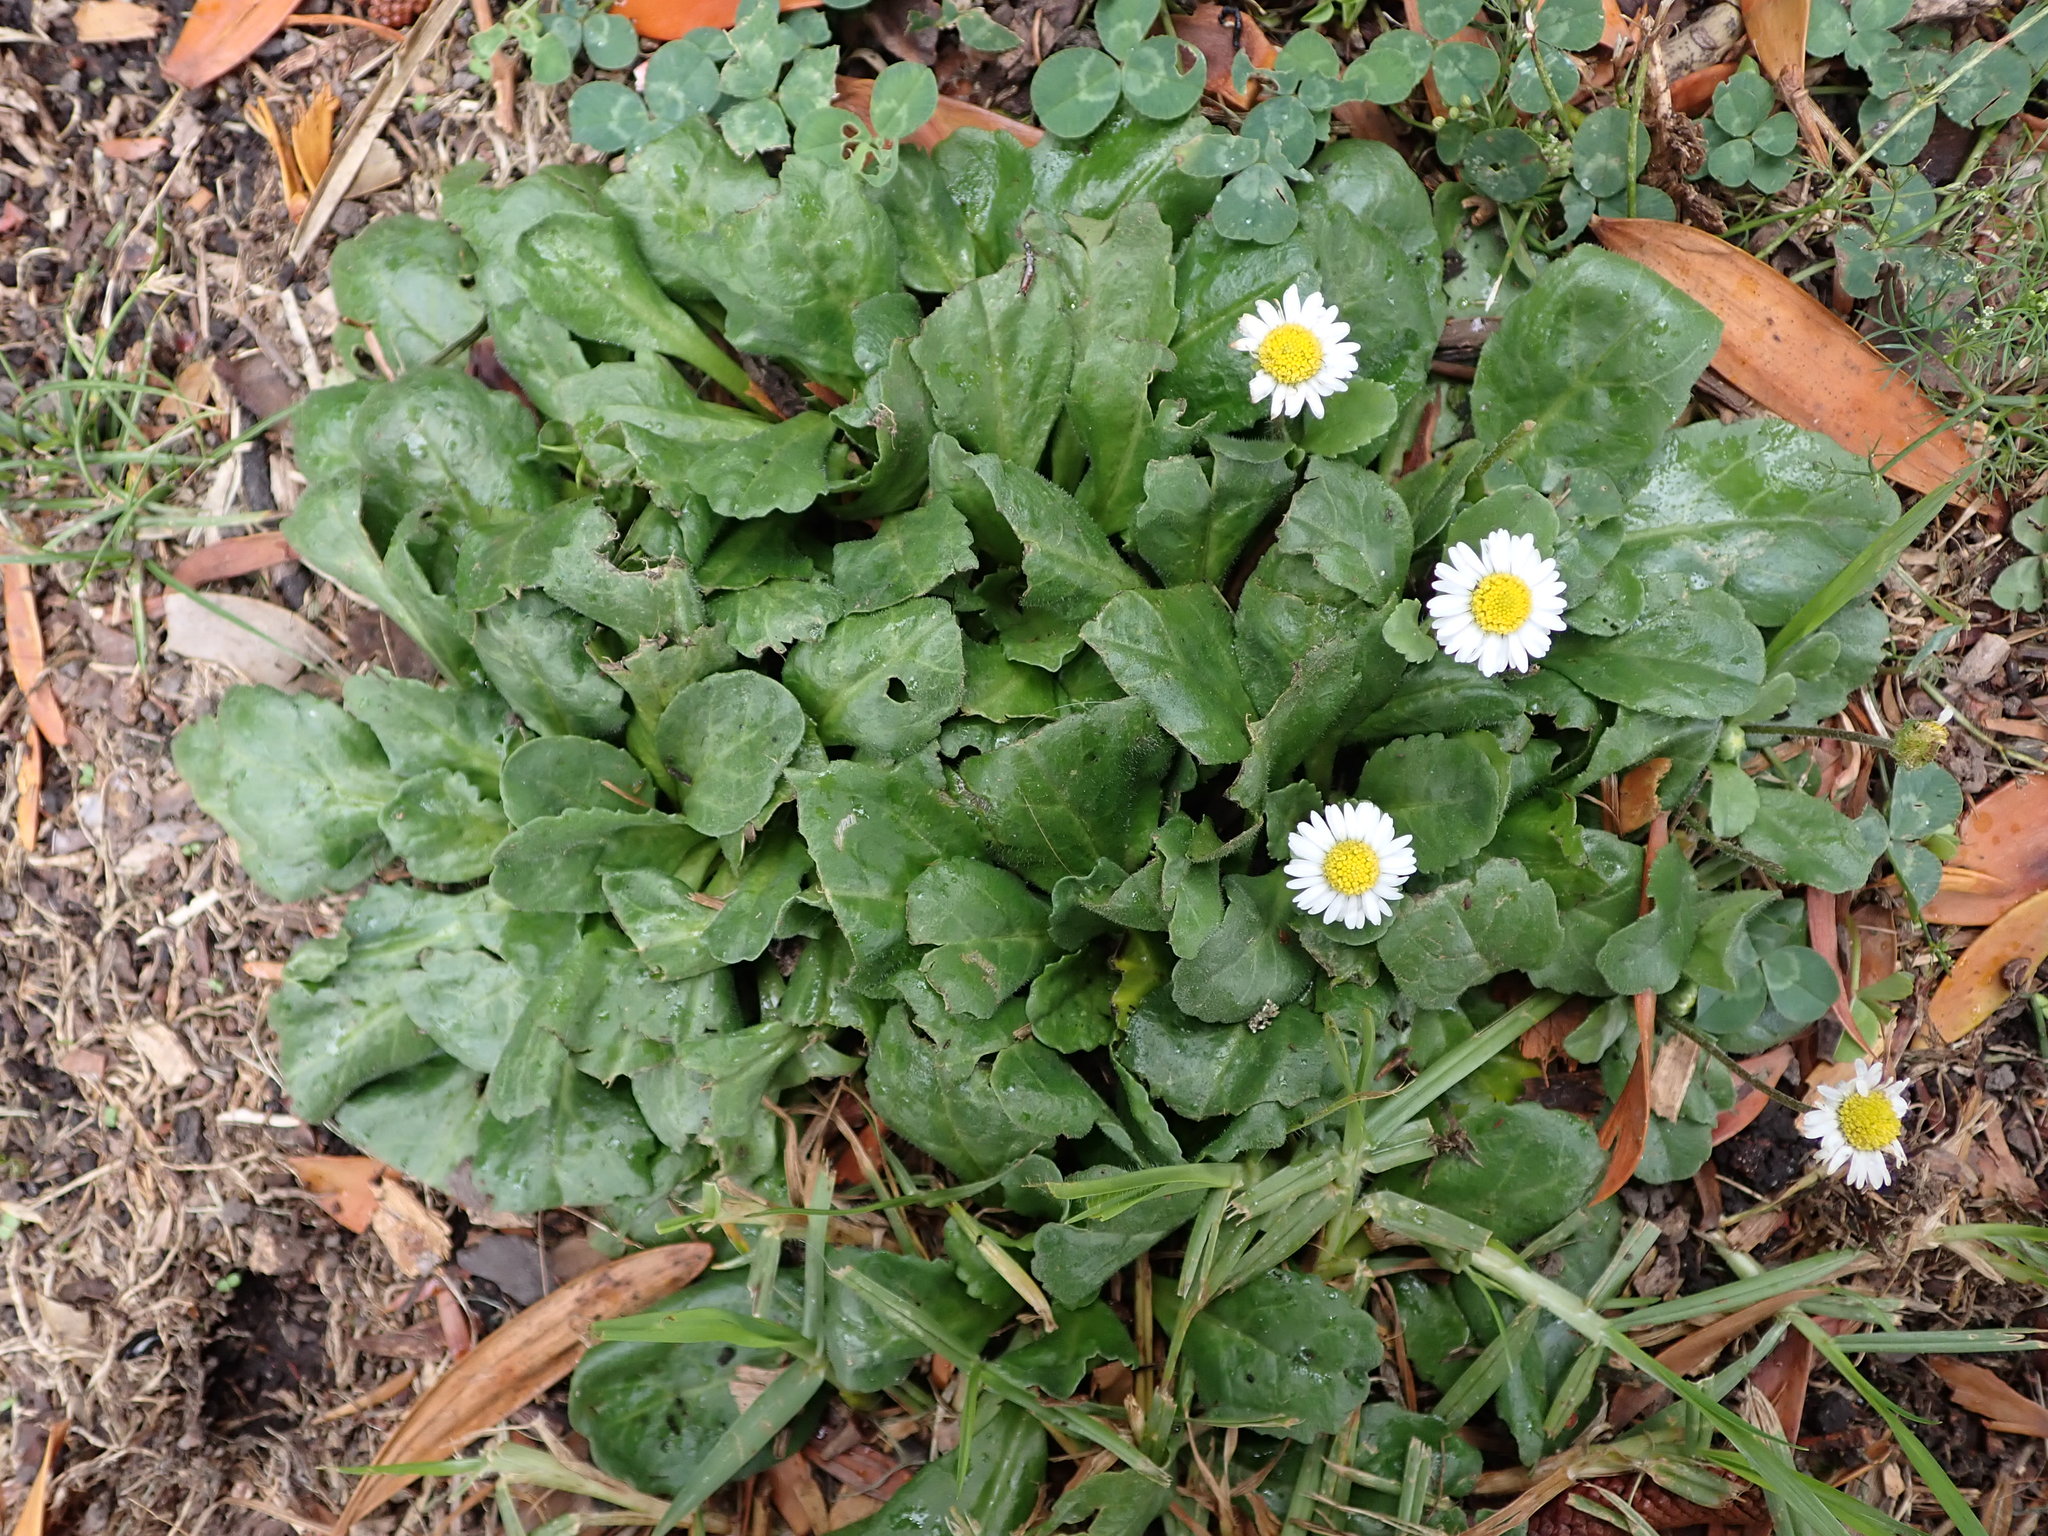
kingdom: Plantae
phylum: Tracheophyta
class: Magnoliopsida
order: Asterales
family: Asteraceae
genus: Bellis
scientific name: Bellis perennis
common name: Lawndaisy
